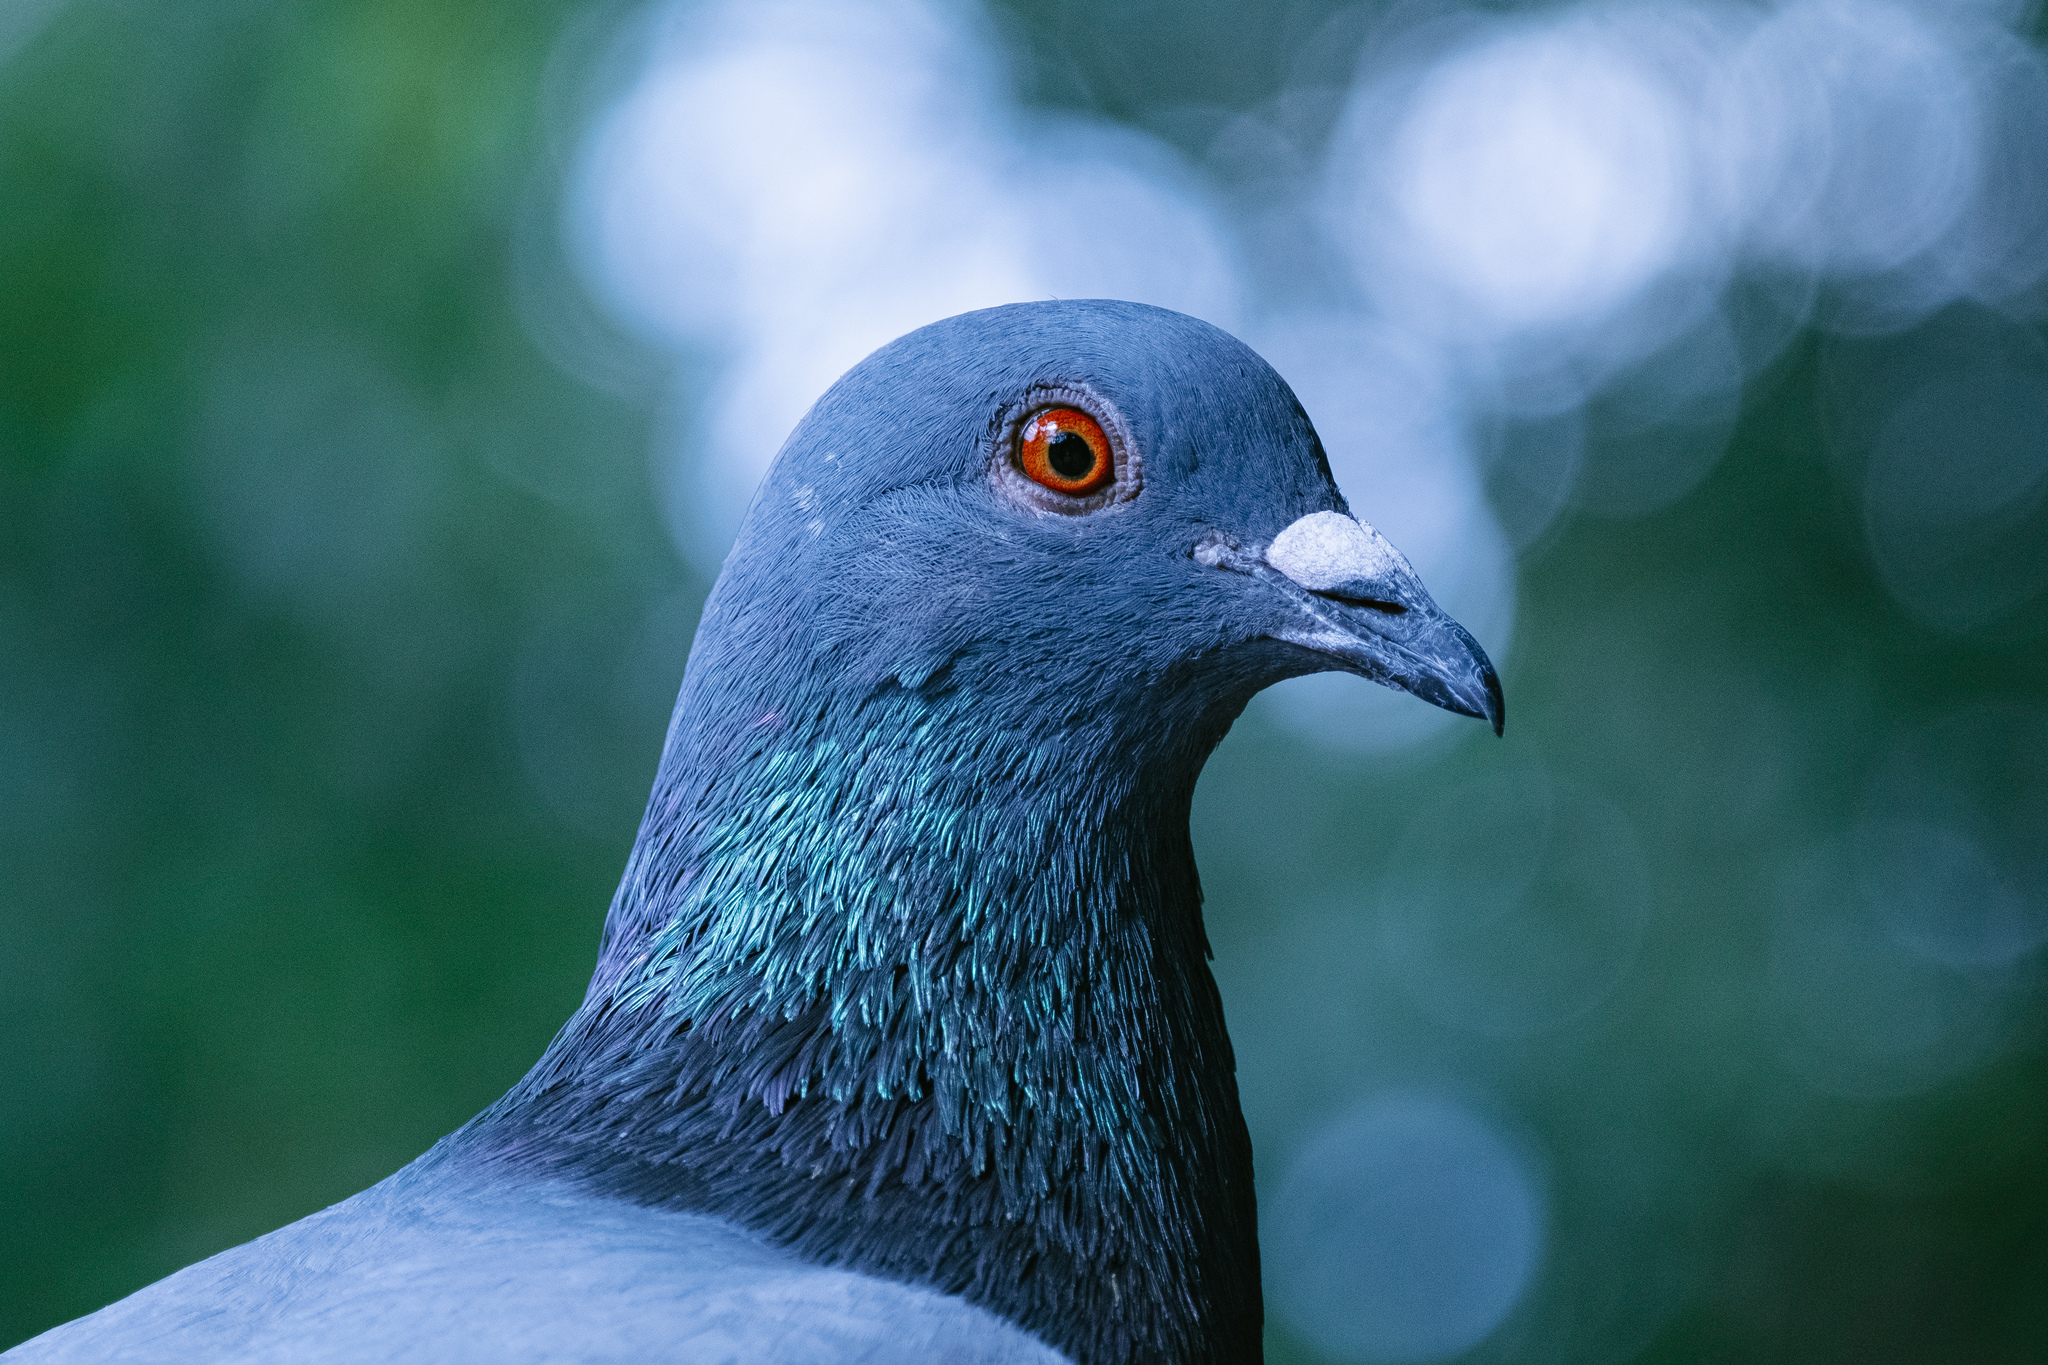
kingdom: Animalia
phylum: Chordata
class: Aves
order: Columbiformes
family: Columbidae
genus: Columba
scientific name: Columba livia
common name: Rock pigeon
